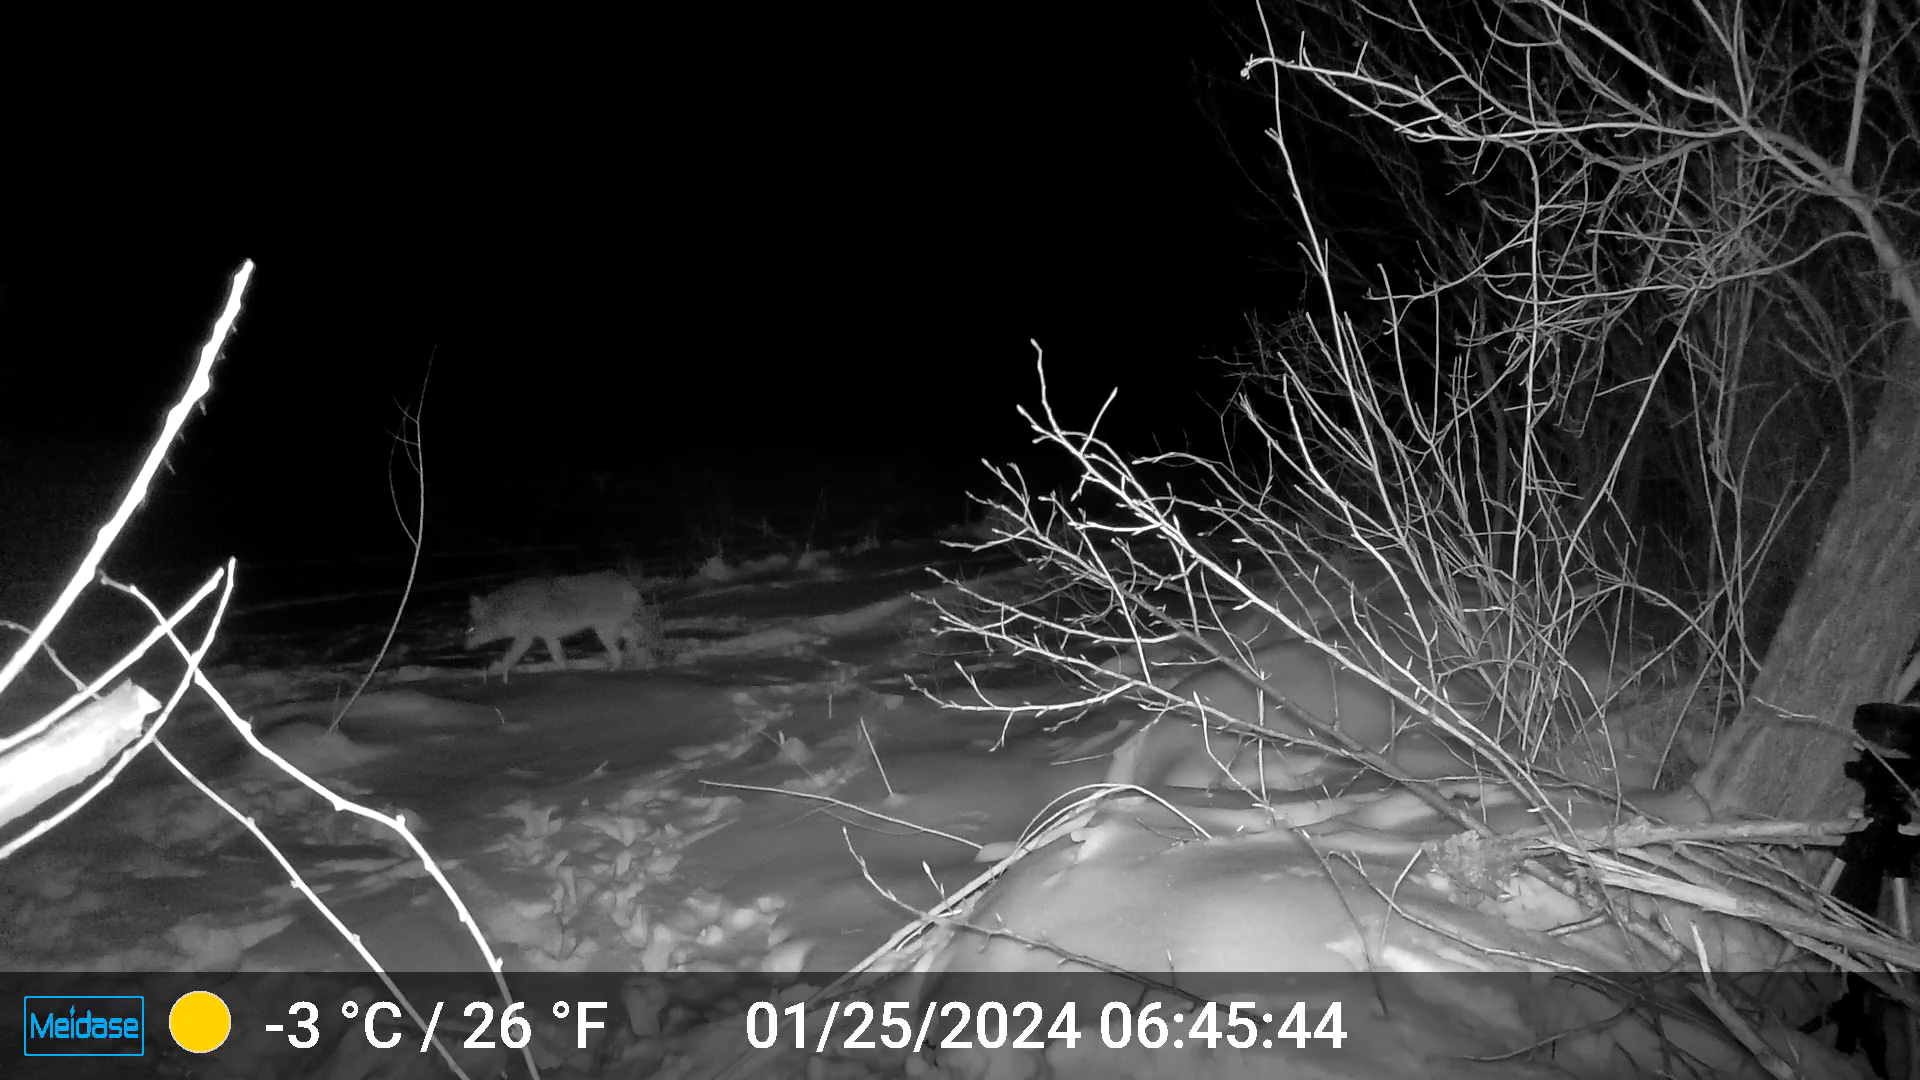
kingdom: Animalia
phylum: Chordata
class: Mammalia
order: Carnivora
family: Canidae
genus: Canis
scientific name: Canis latrans
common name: Coyote
